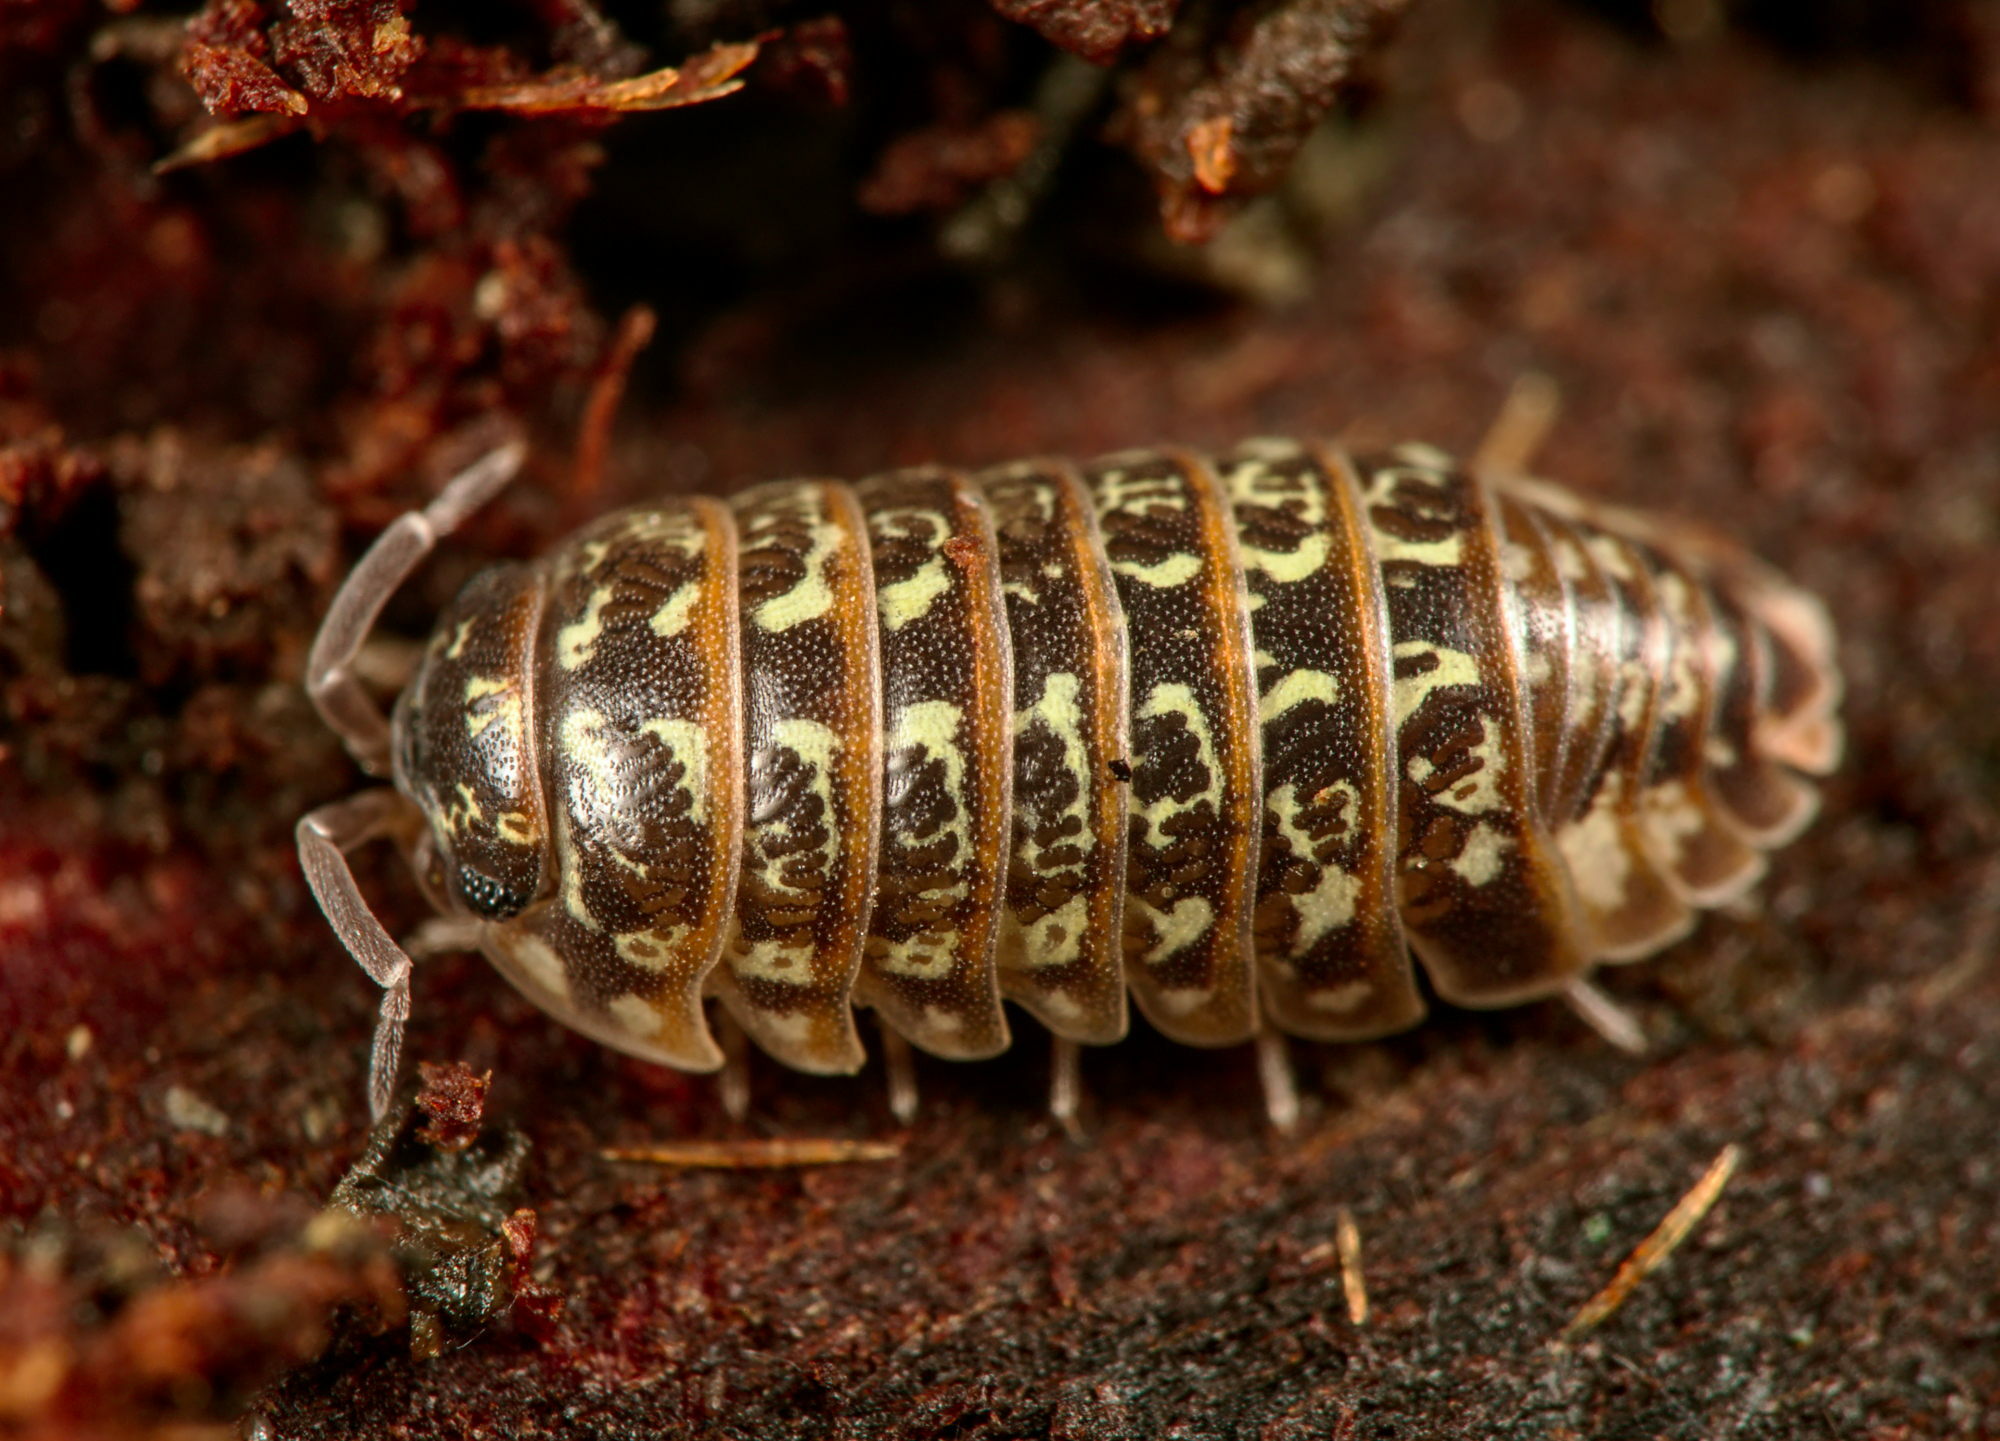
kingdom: Animalia
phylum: Arthropoda
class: Malacostraca
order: Isopoda
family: Armadillidiidae
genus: Armadillidium
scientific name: Armadillidium pictum
